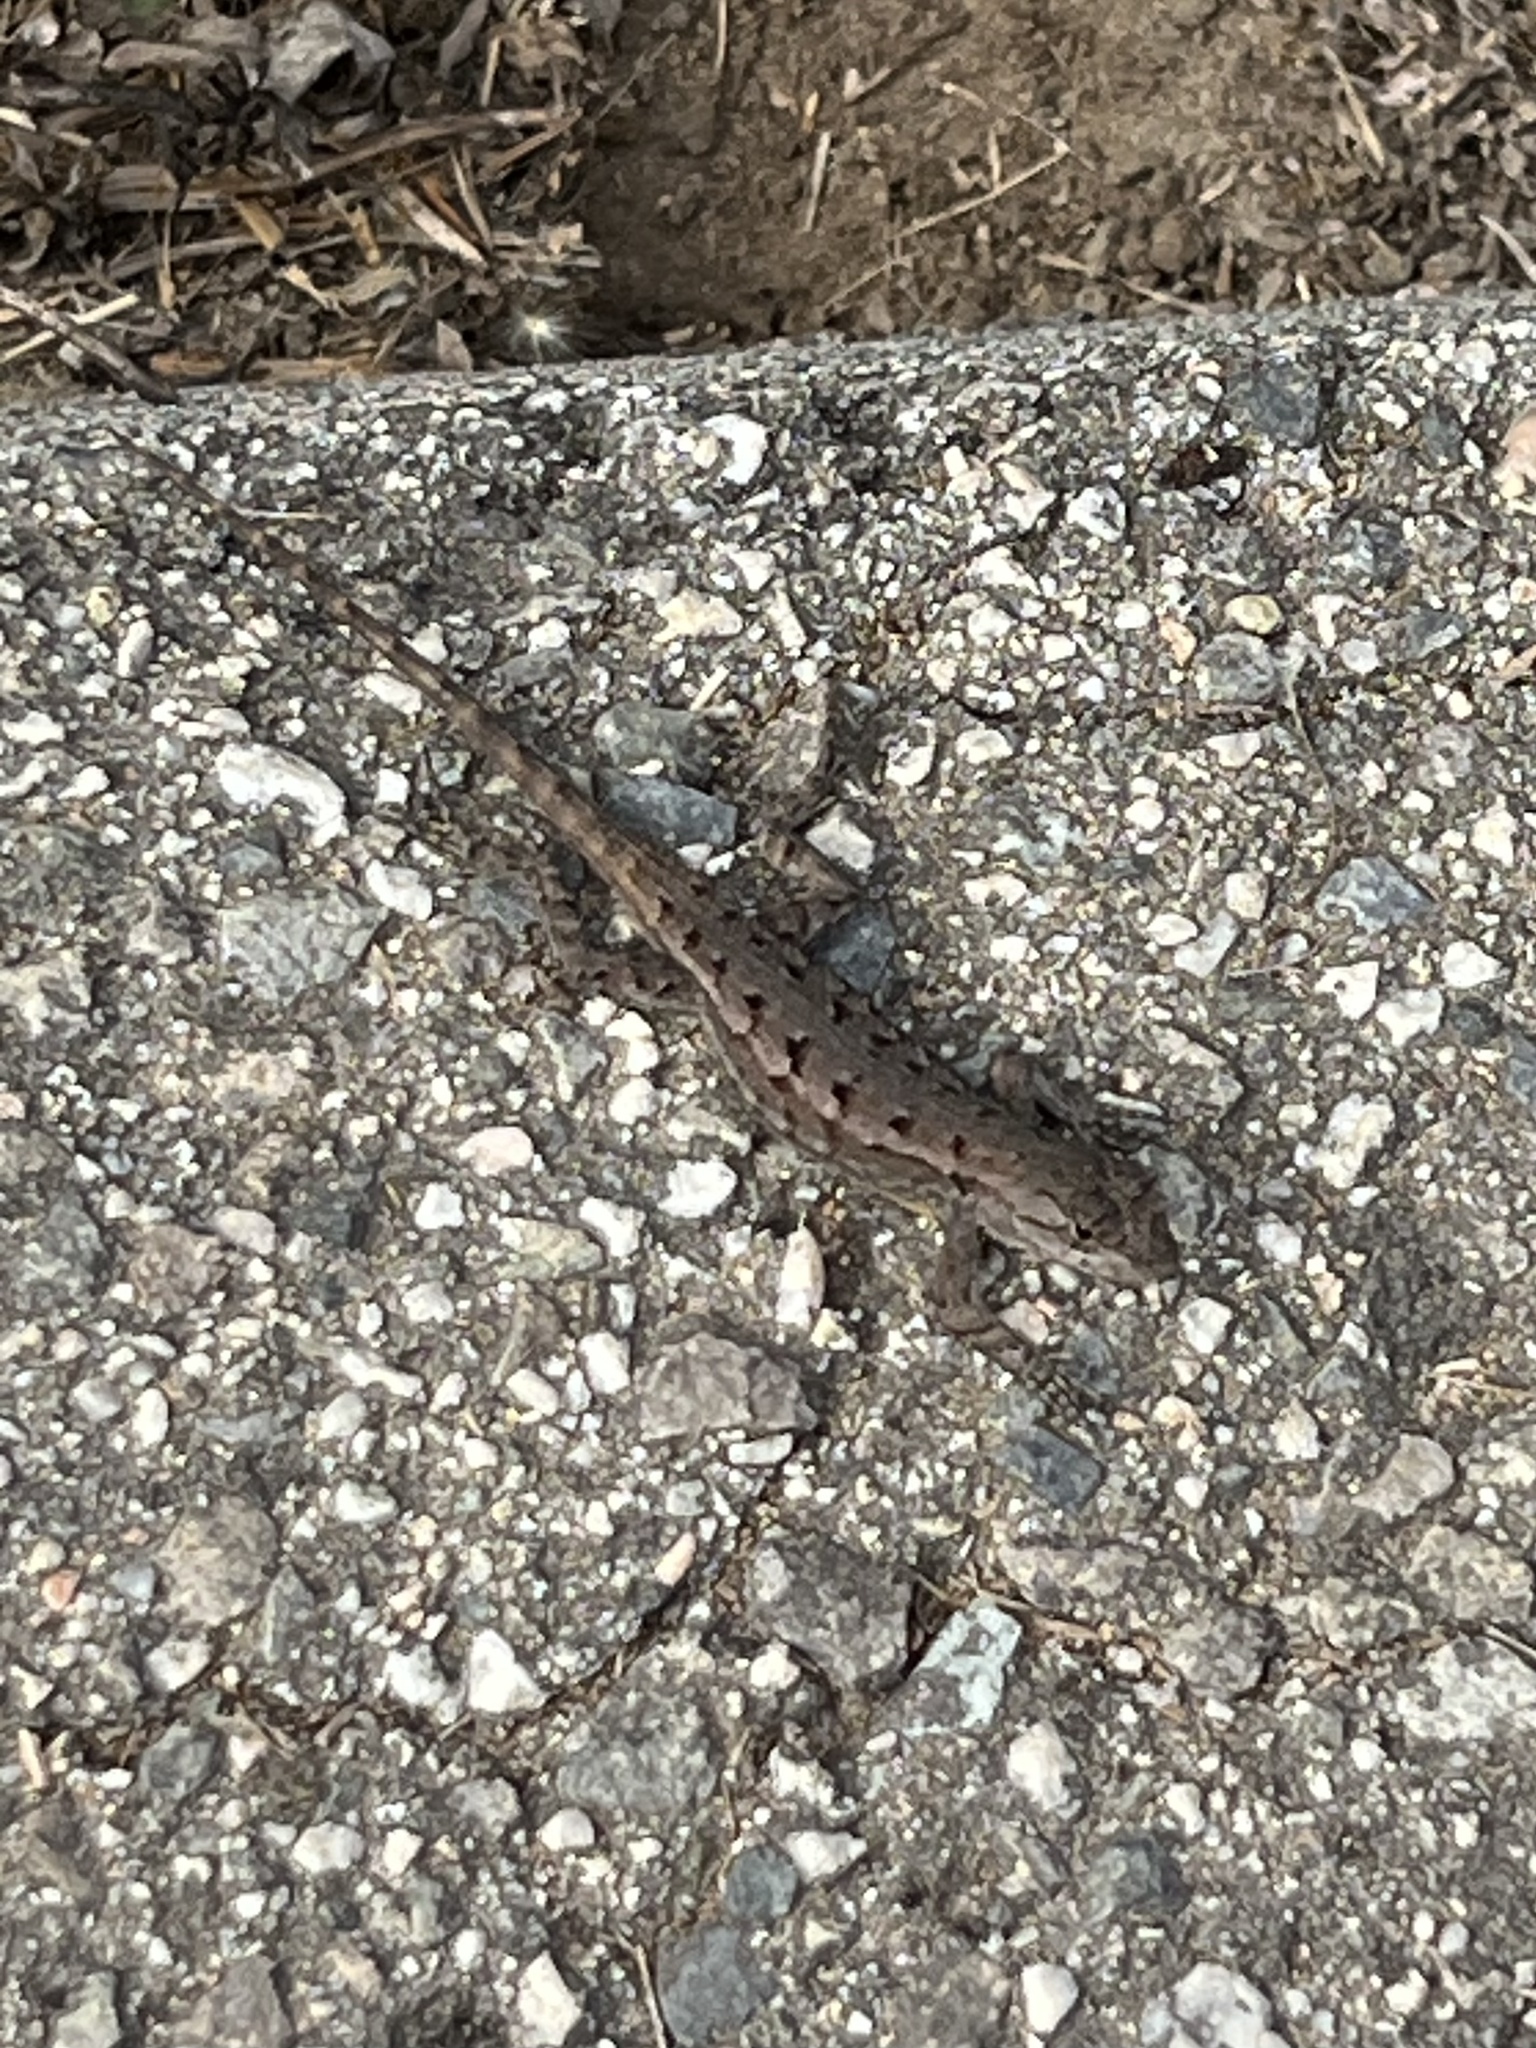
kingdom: Animalia
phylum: Chordata
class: Squamata
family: Phrynosomatidae
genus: Sceloporus
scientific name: Sceloporus occidentalis
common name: Western fence lizard
